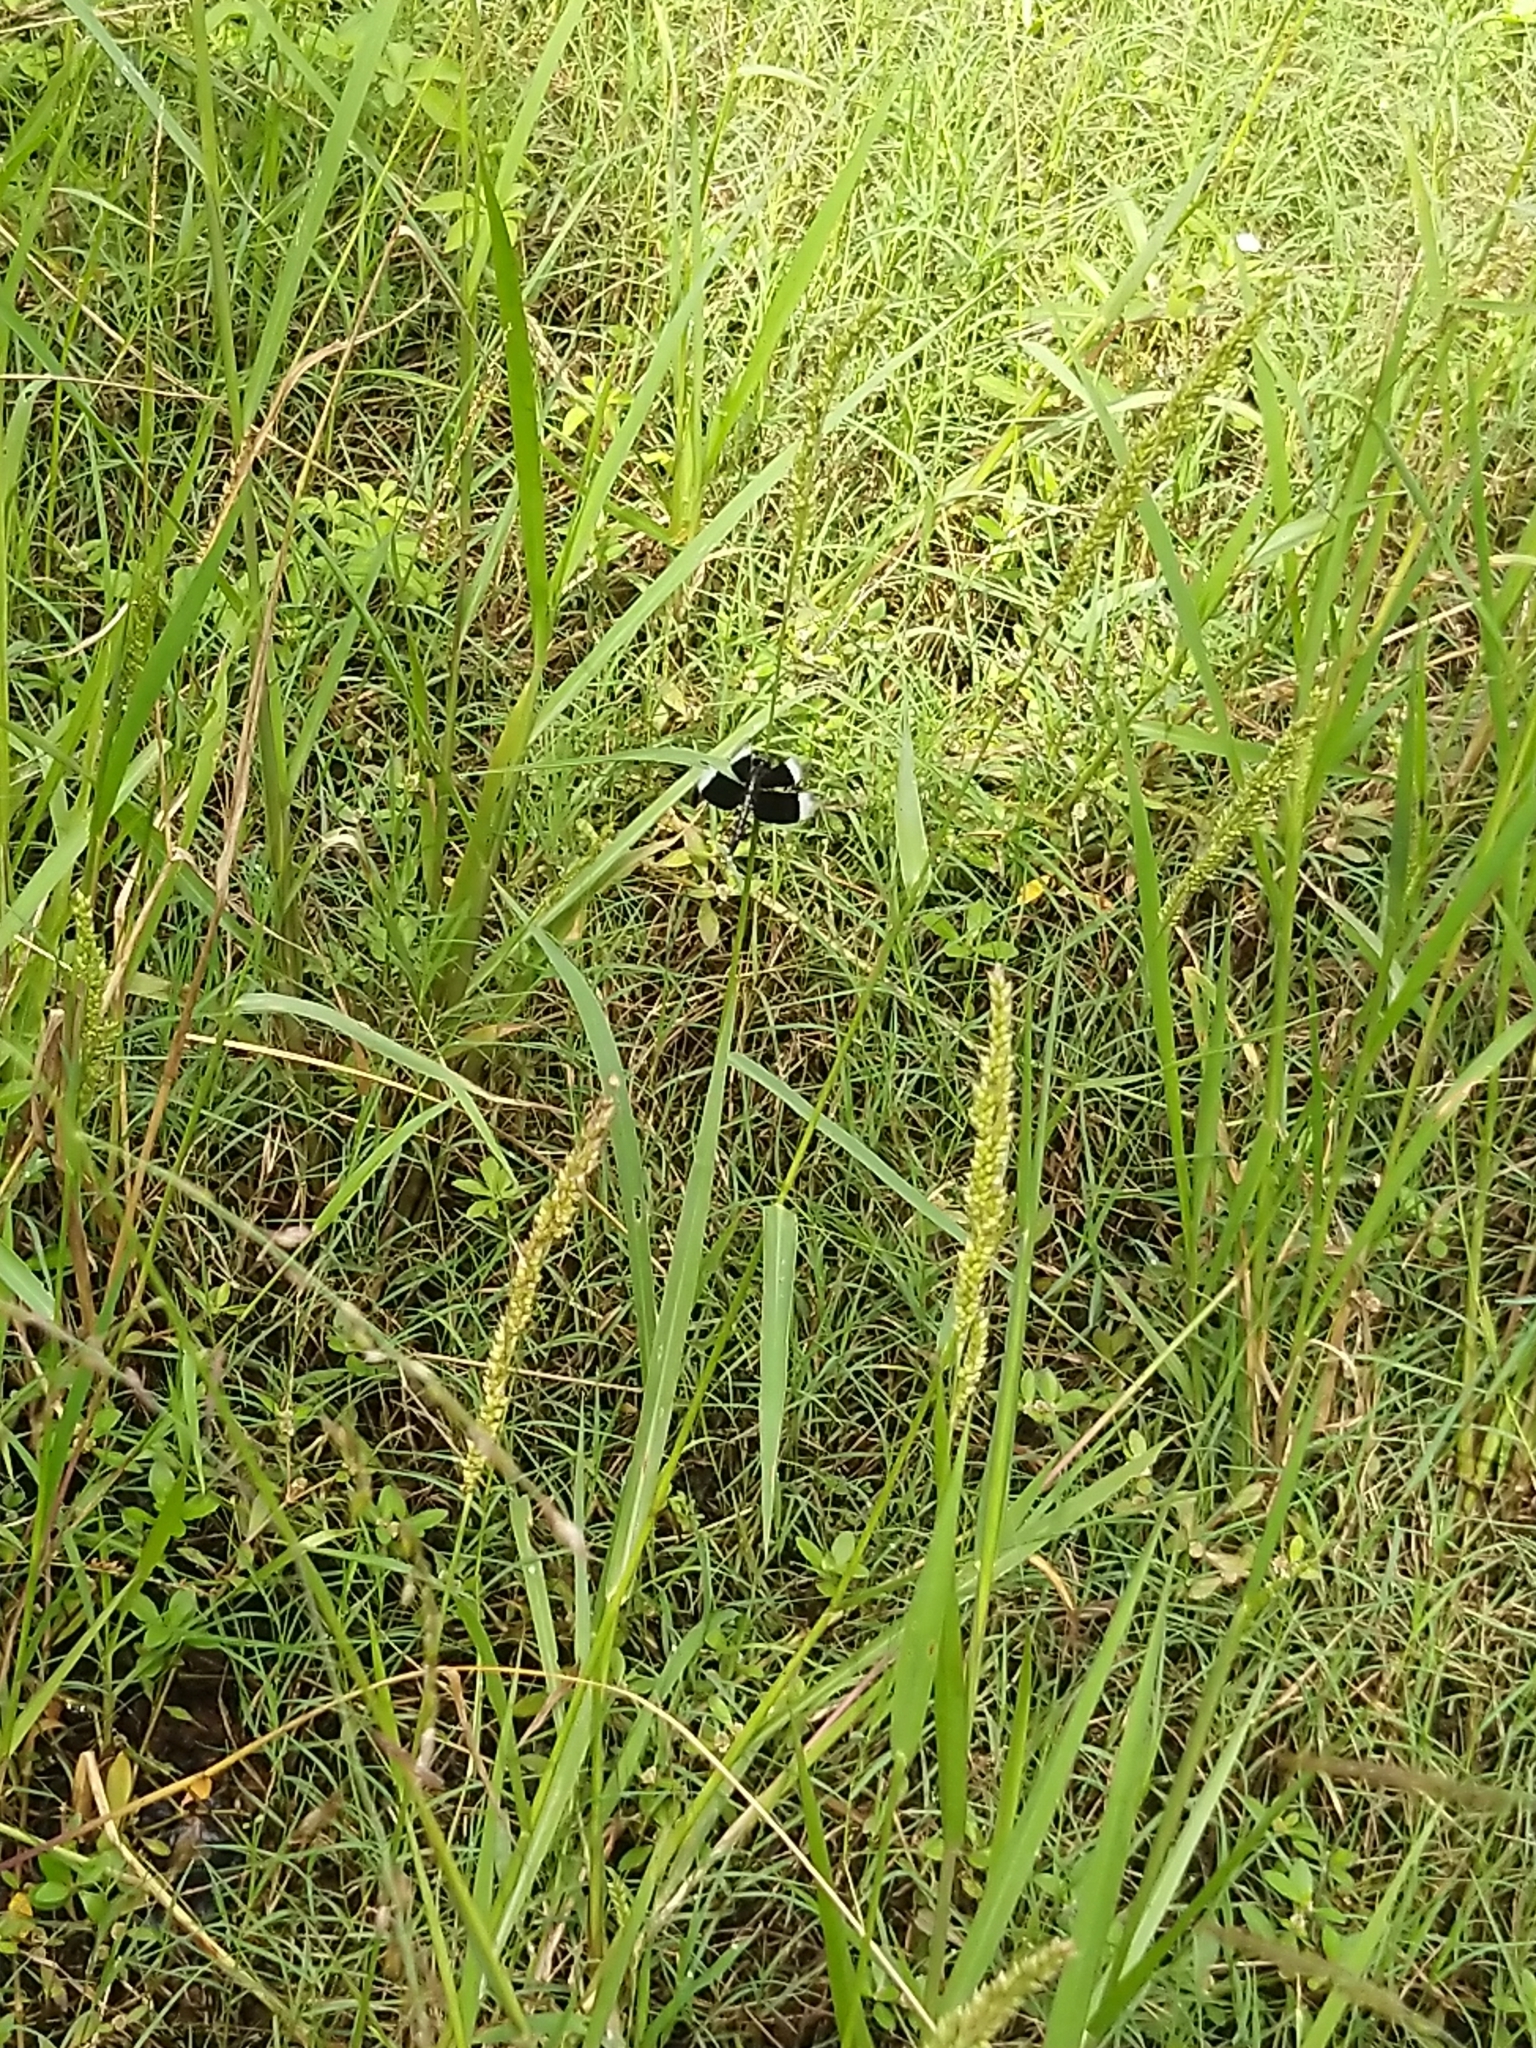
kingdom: Animalia
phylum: Arthropoda
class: Insecta
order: Odonata
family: Libellulidae
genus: Neurothemis
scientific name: Neurothemis tullia
